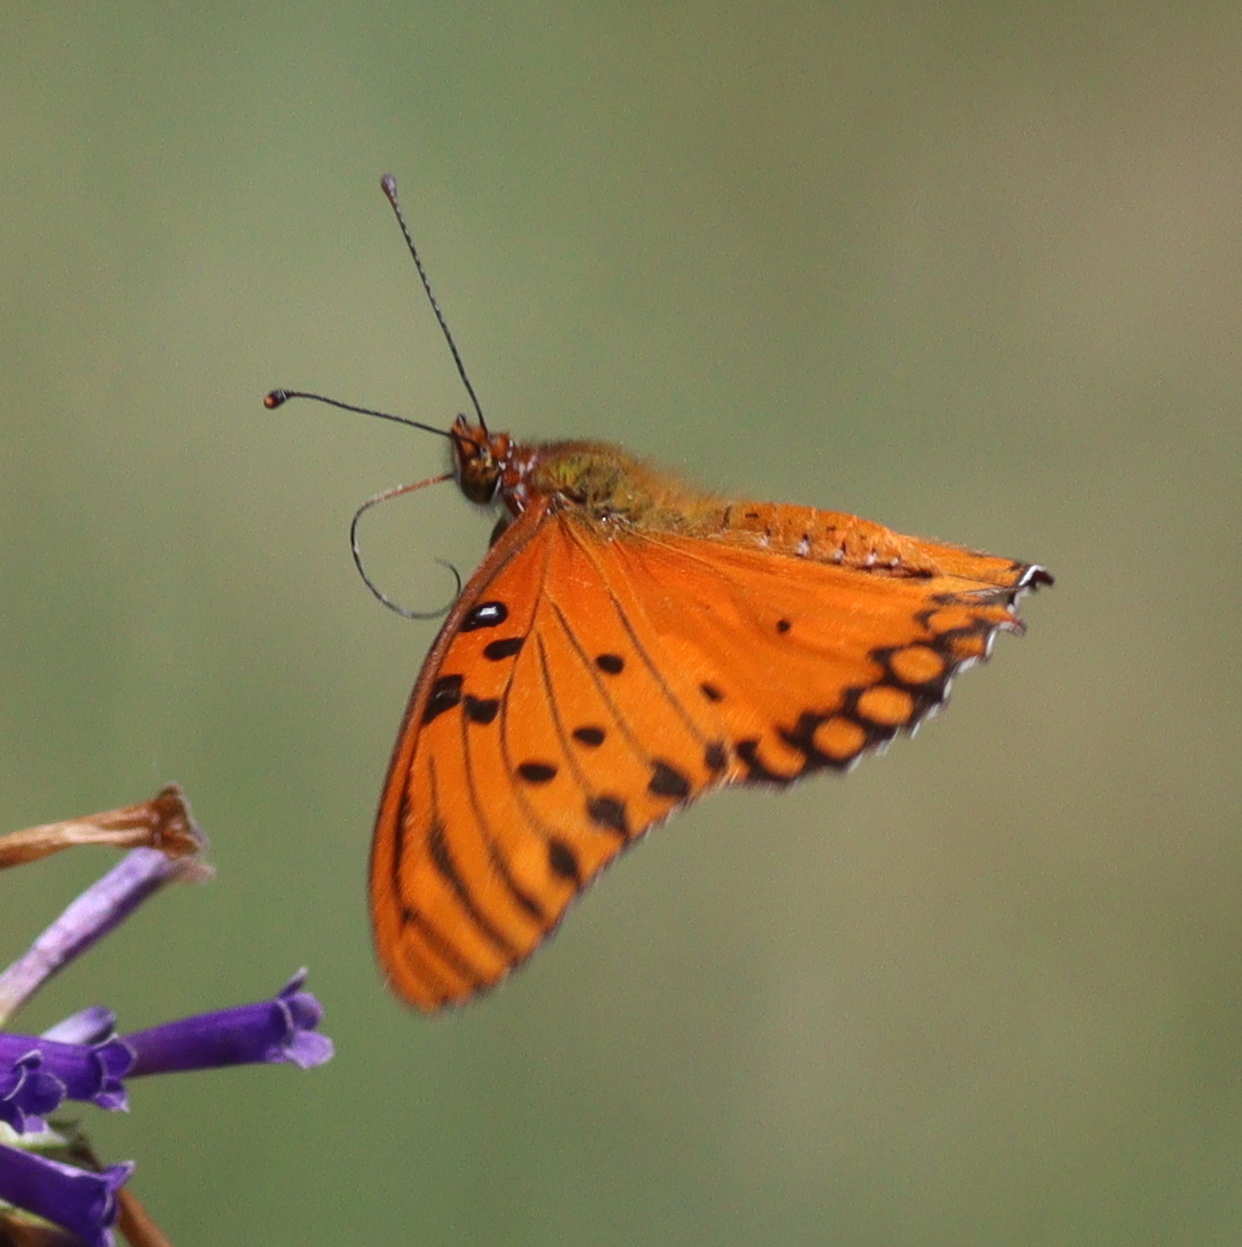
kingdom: Animalia
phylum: Arthropoda
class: Insecta
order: Lepidoptera
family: Nymphalidae
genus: Dione
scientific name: Dione vanillae
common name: Gulf fritillary
